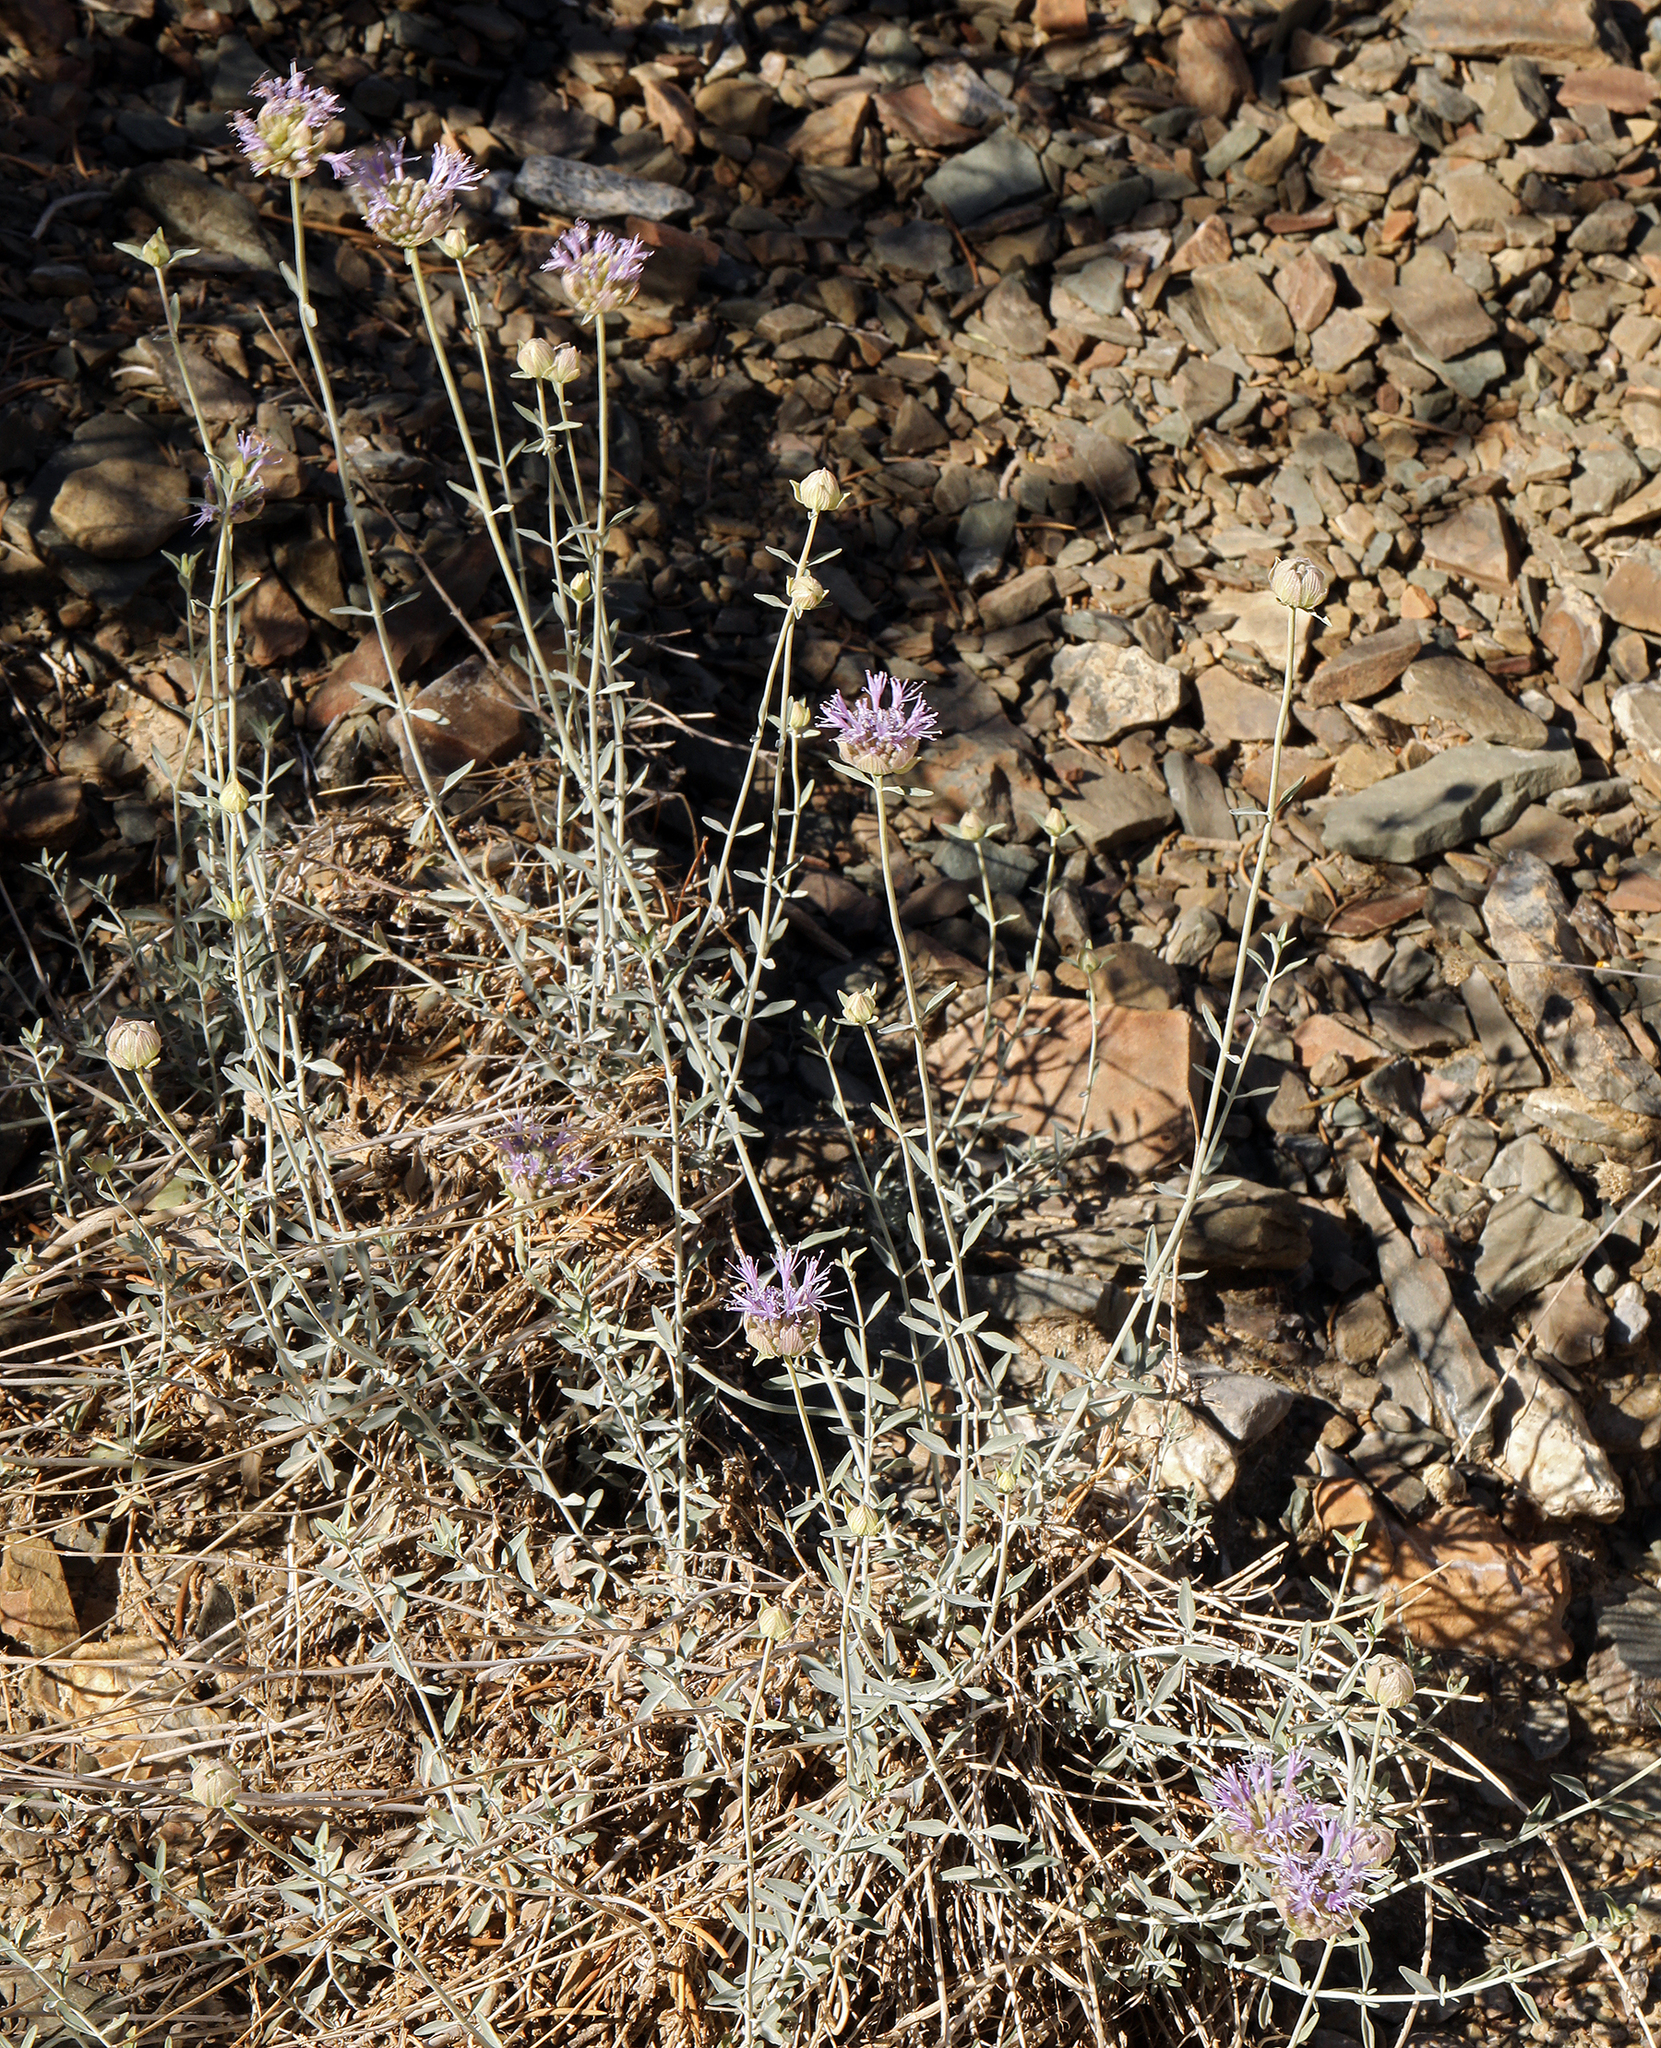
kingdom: Plantae
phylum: Tracheophyta
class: Magnoliopsida
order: Lamiales
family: Lamiaceae
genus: Monardella
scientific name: Monardella linoides
